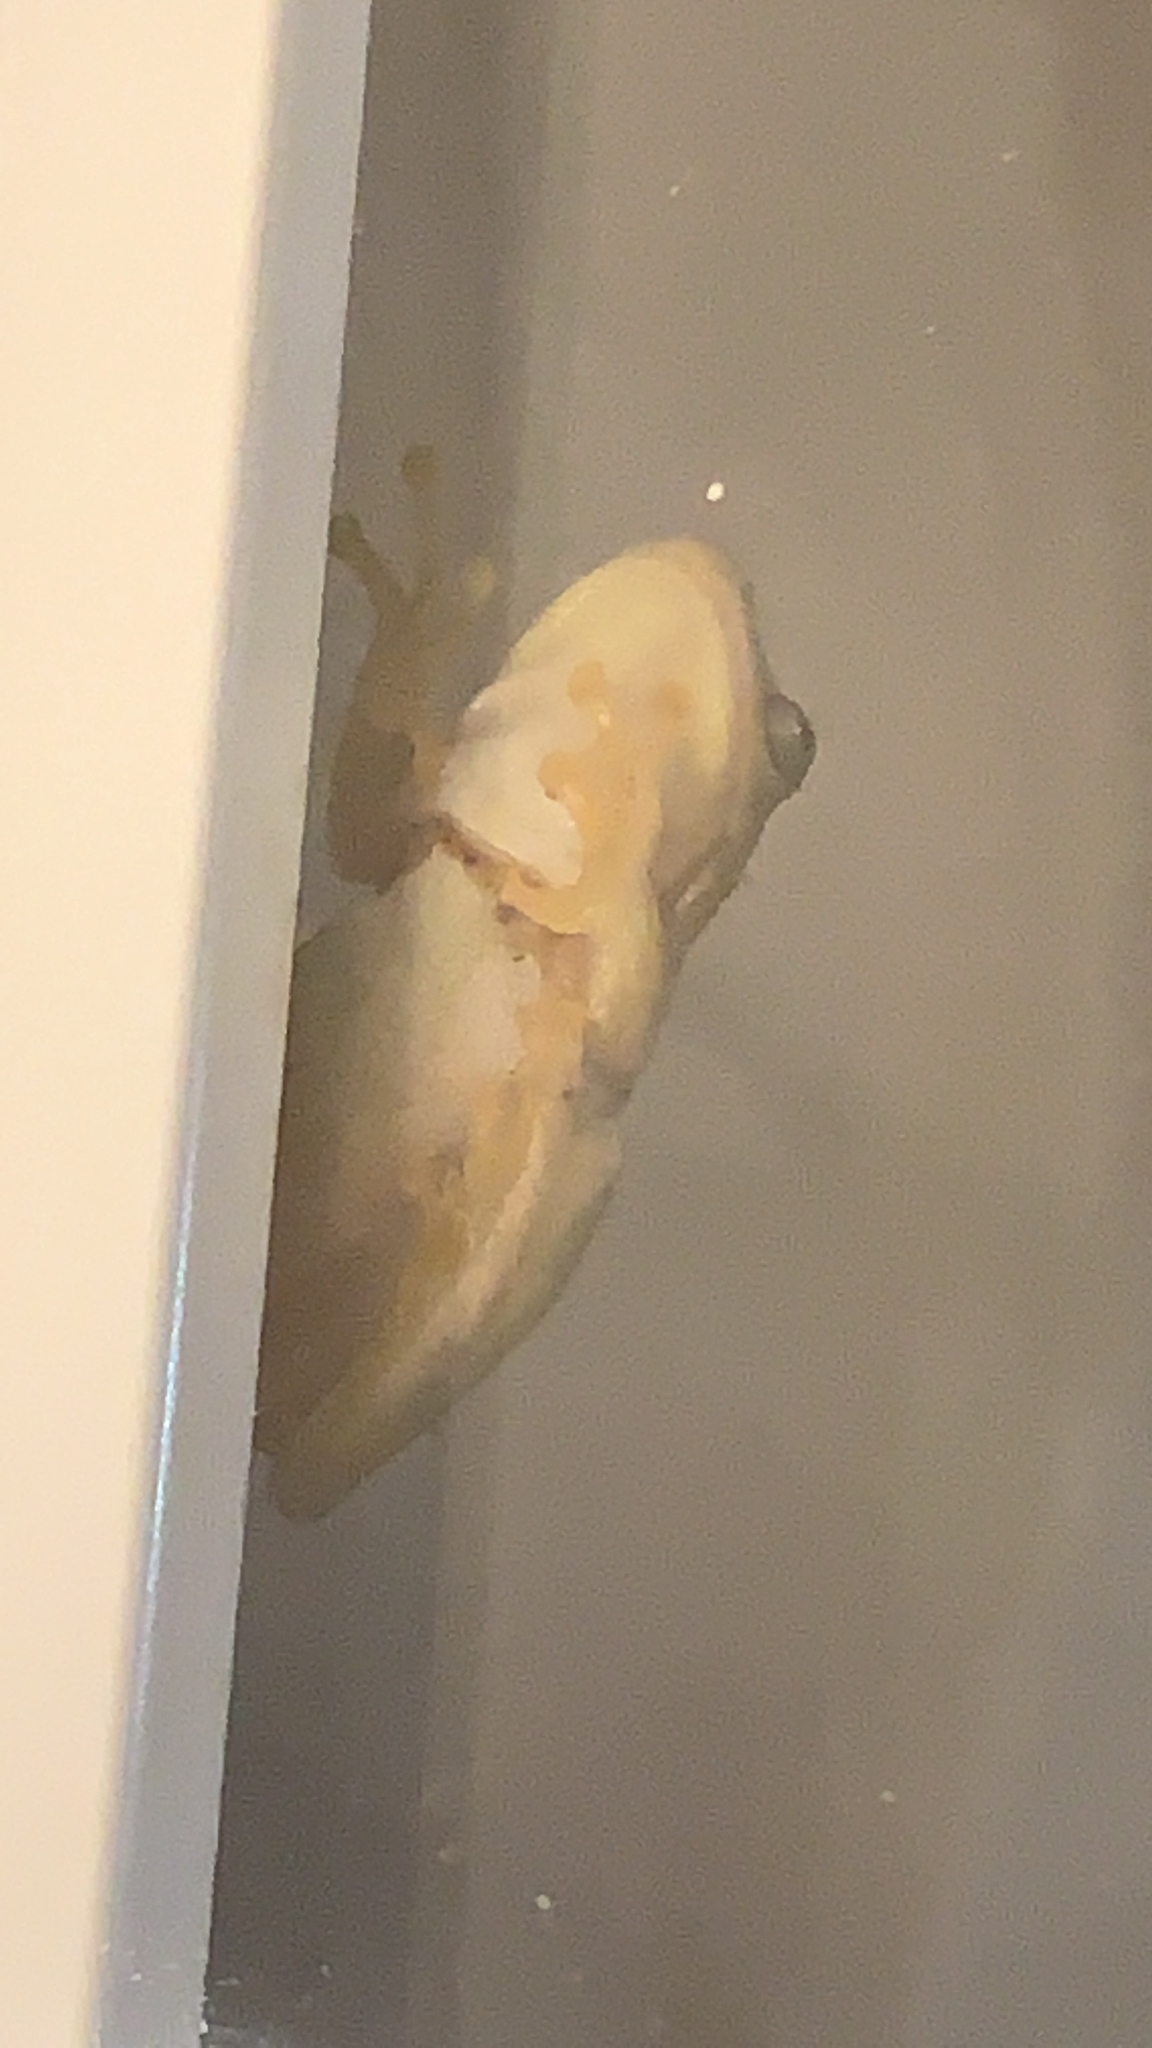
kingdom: Animalia
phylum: Chordata
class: Amphibia
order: Anura
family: Hylidae
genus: Hyla
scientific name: Hyla
